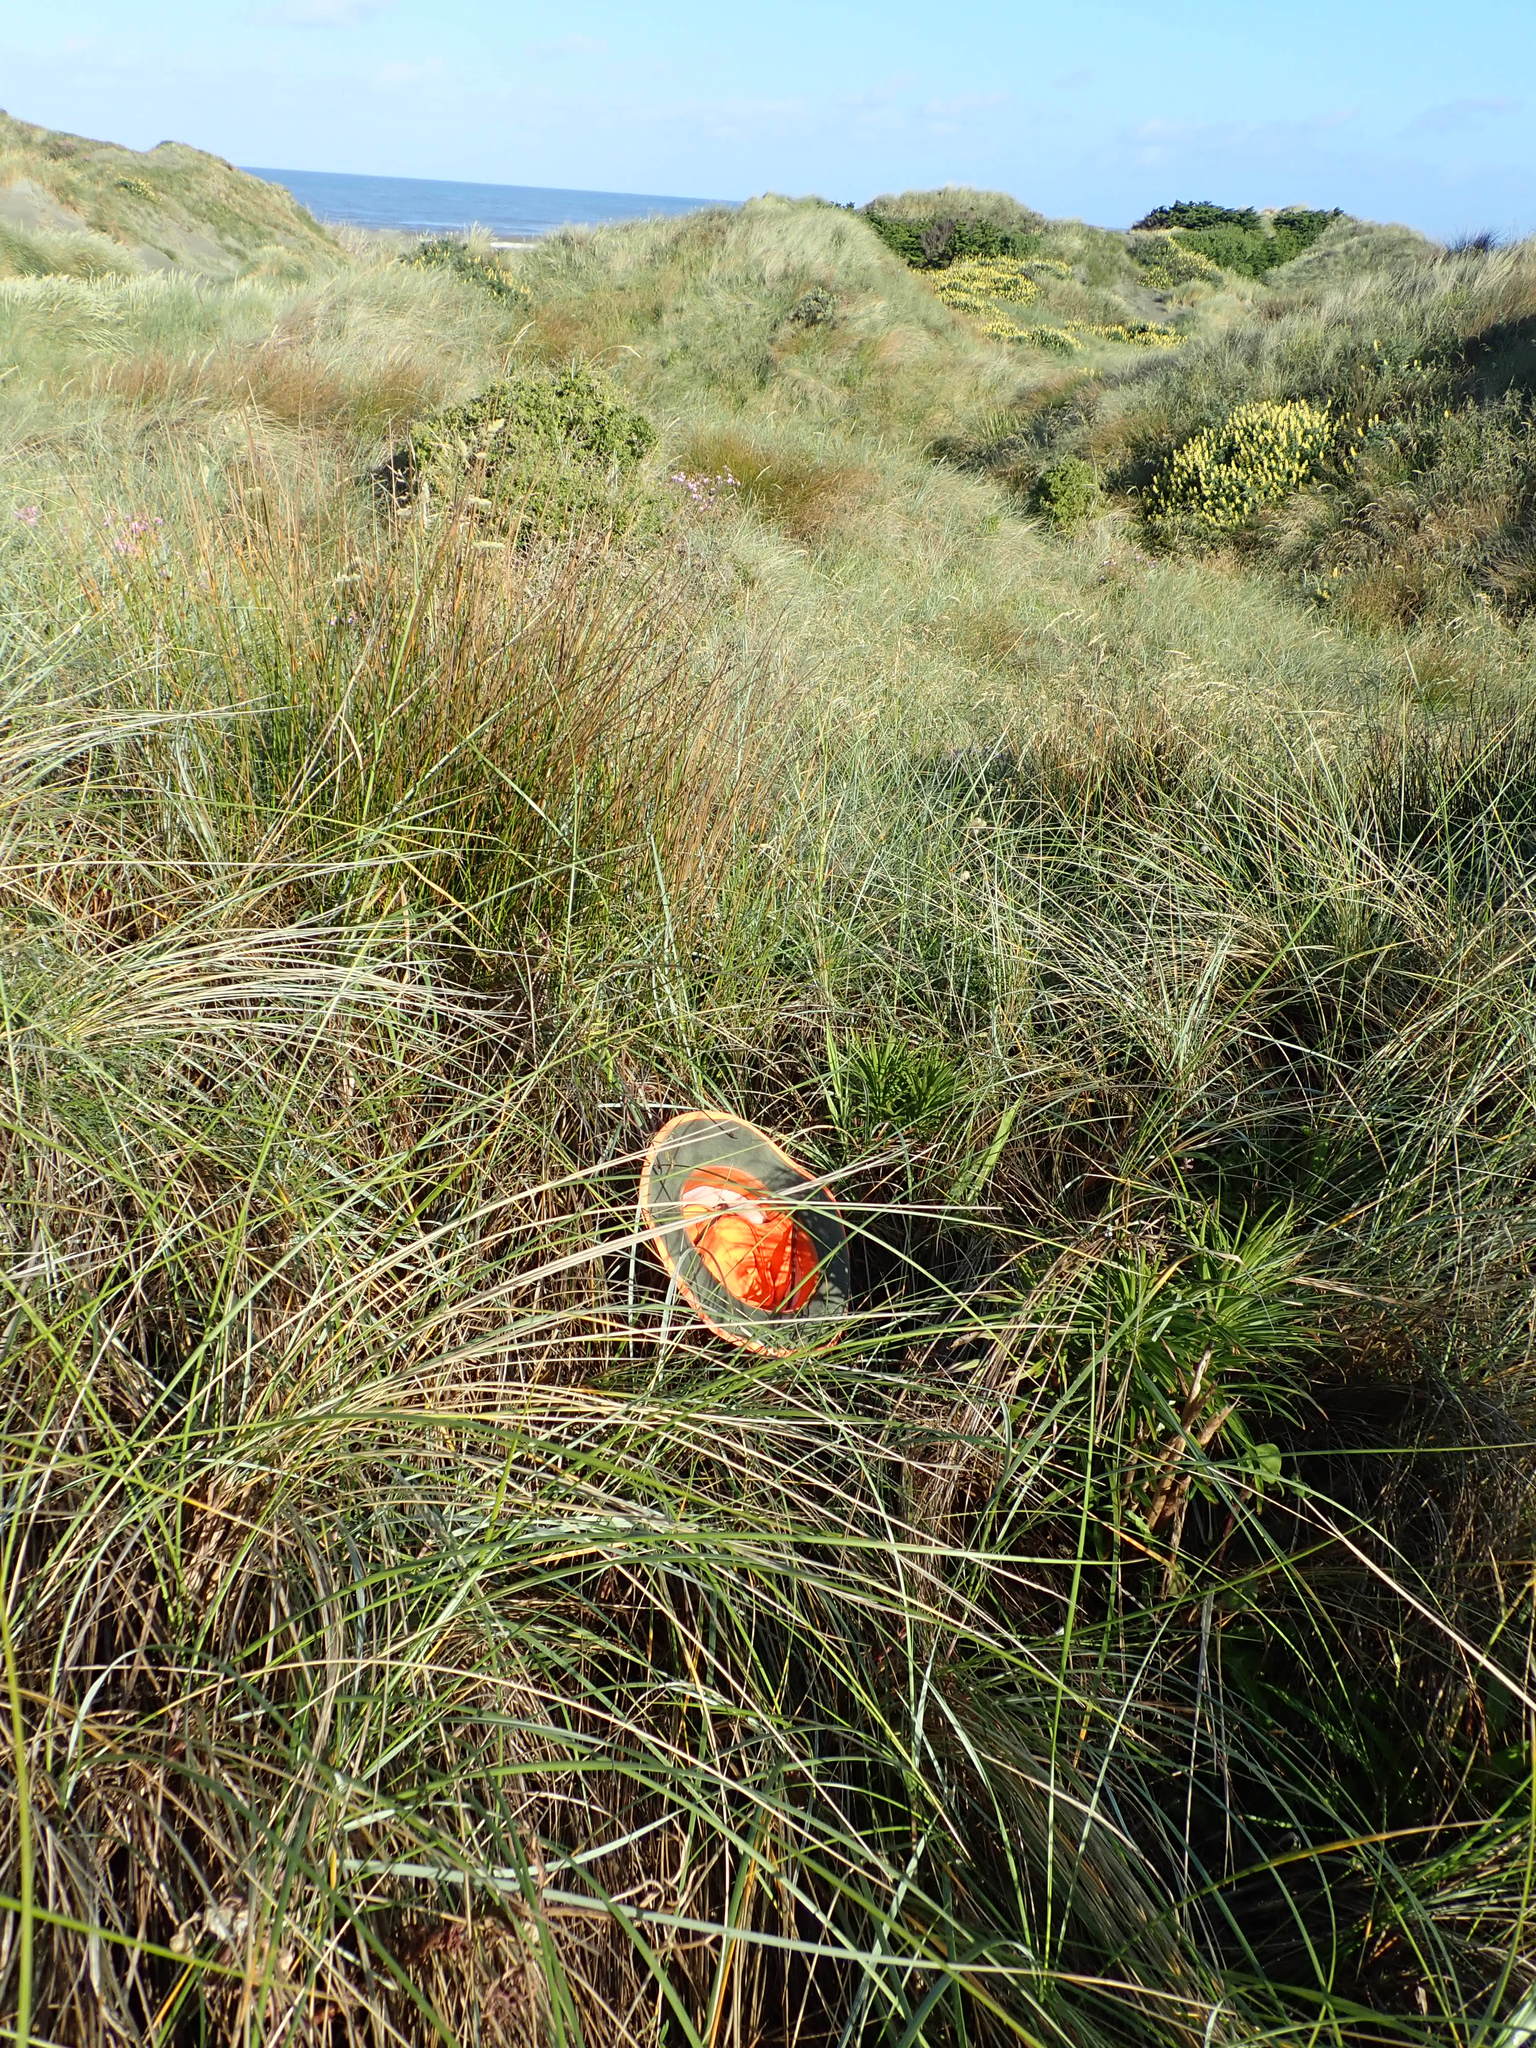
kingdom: Plantae
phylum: Tracheophyta
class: Magnoliopsida
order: Fabales
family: Fabaceae
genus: Vicia
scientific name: Vicia sativa
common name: Garden vetch
